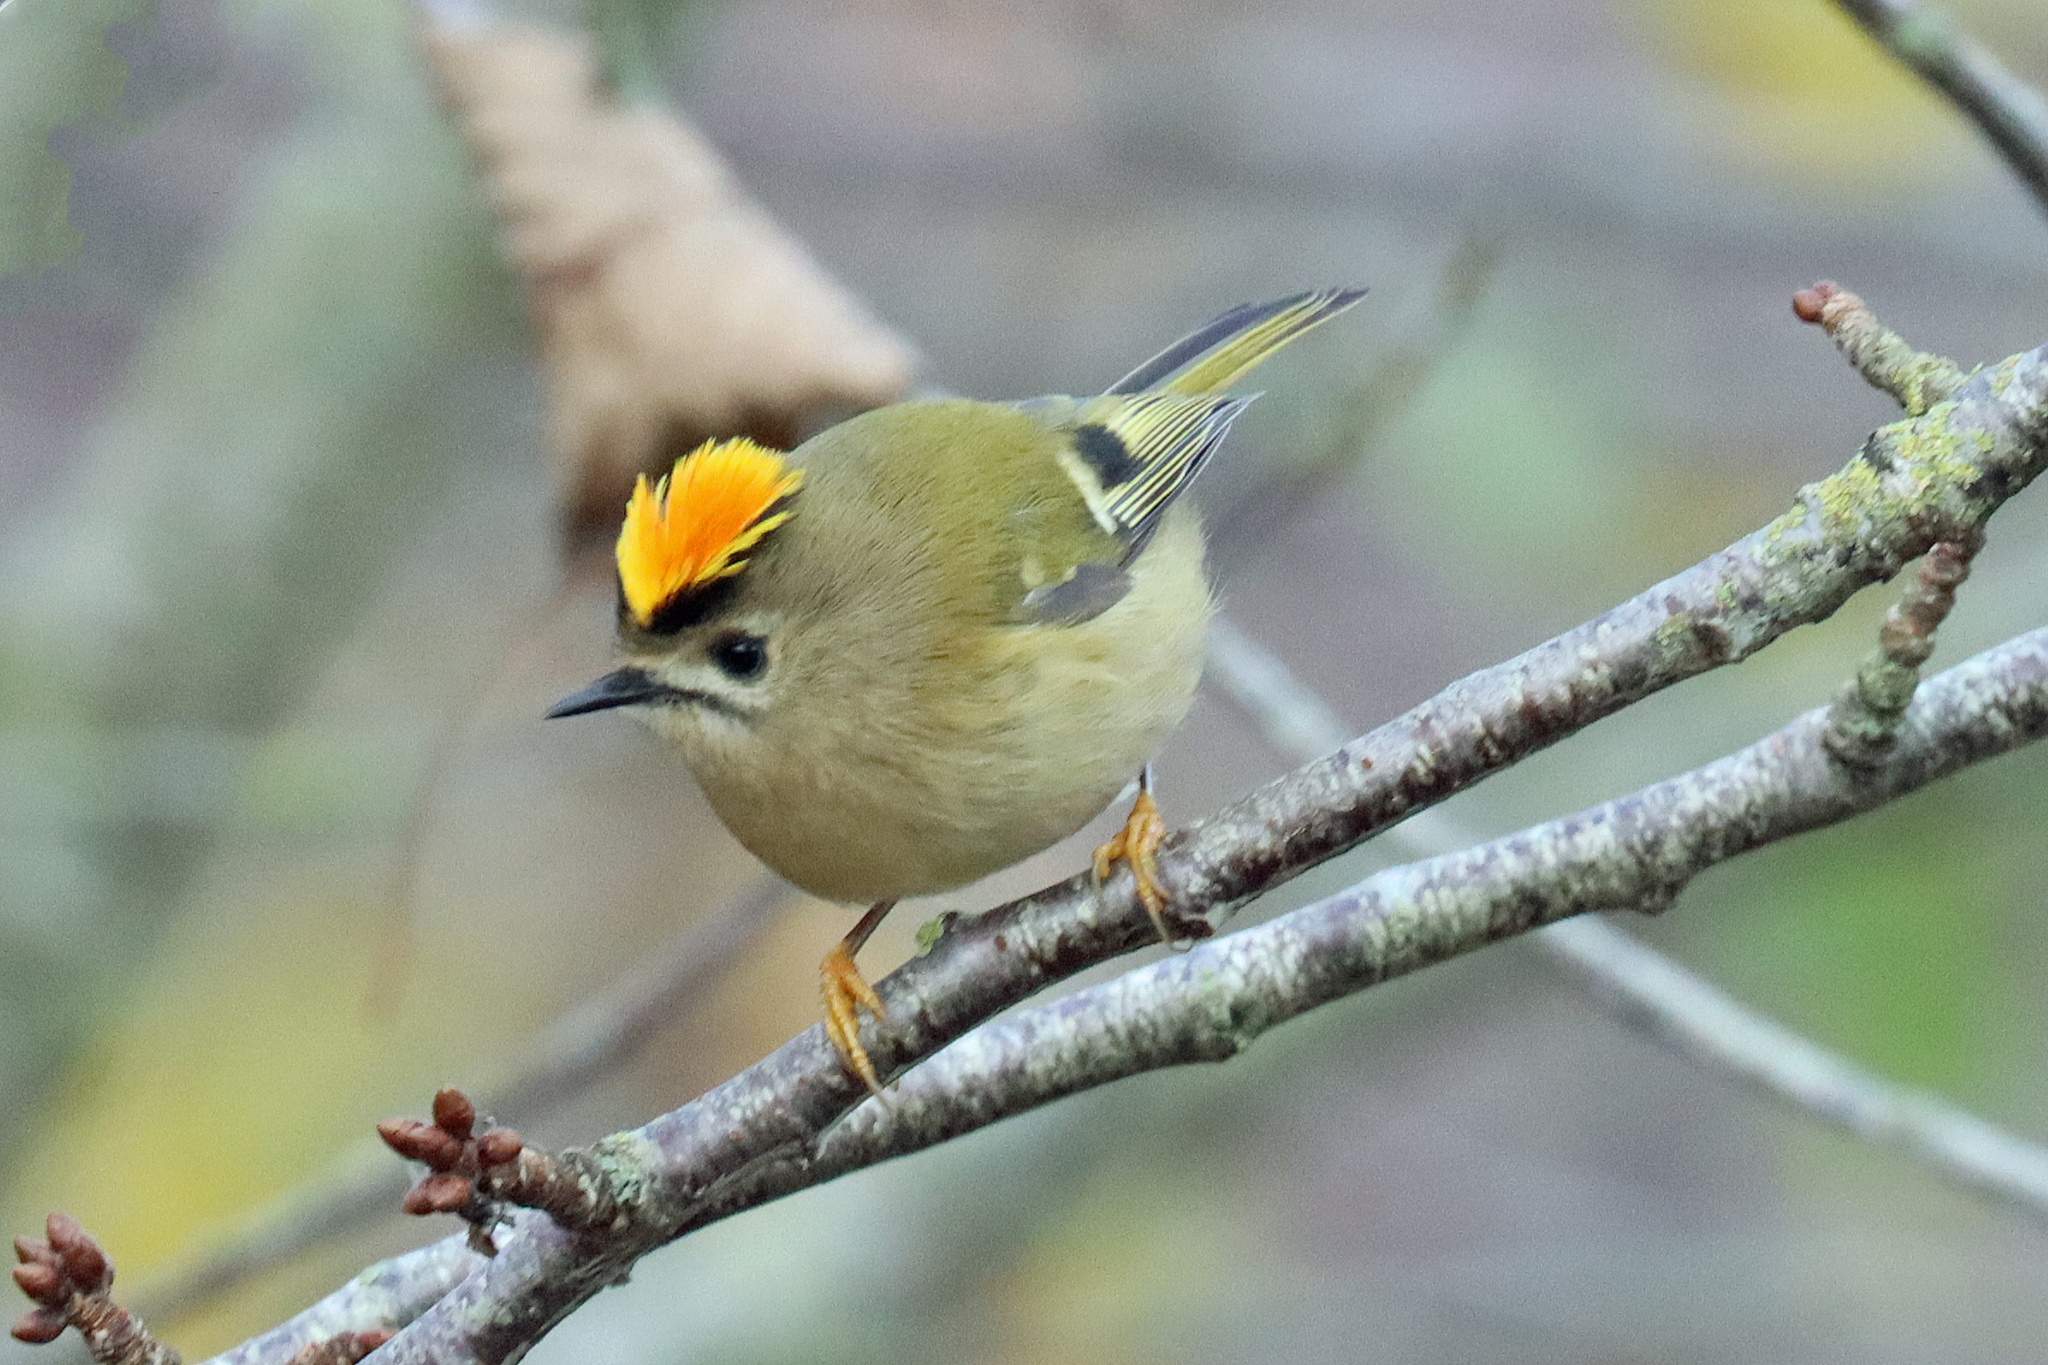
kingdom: Animalia
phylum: Chordata
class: Aves
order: Passeriformes
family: Regulidae
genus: Regulus
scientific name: Regulus regulus
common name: Goldcrest
